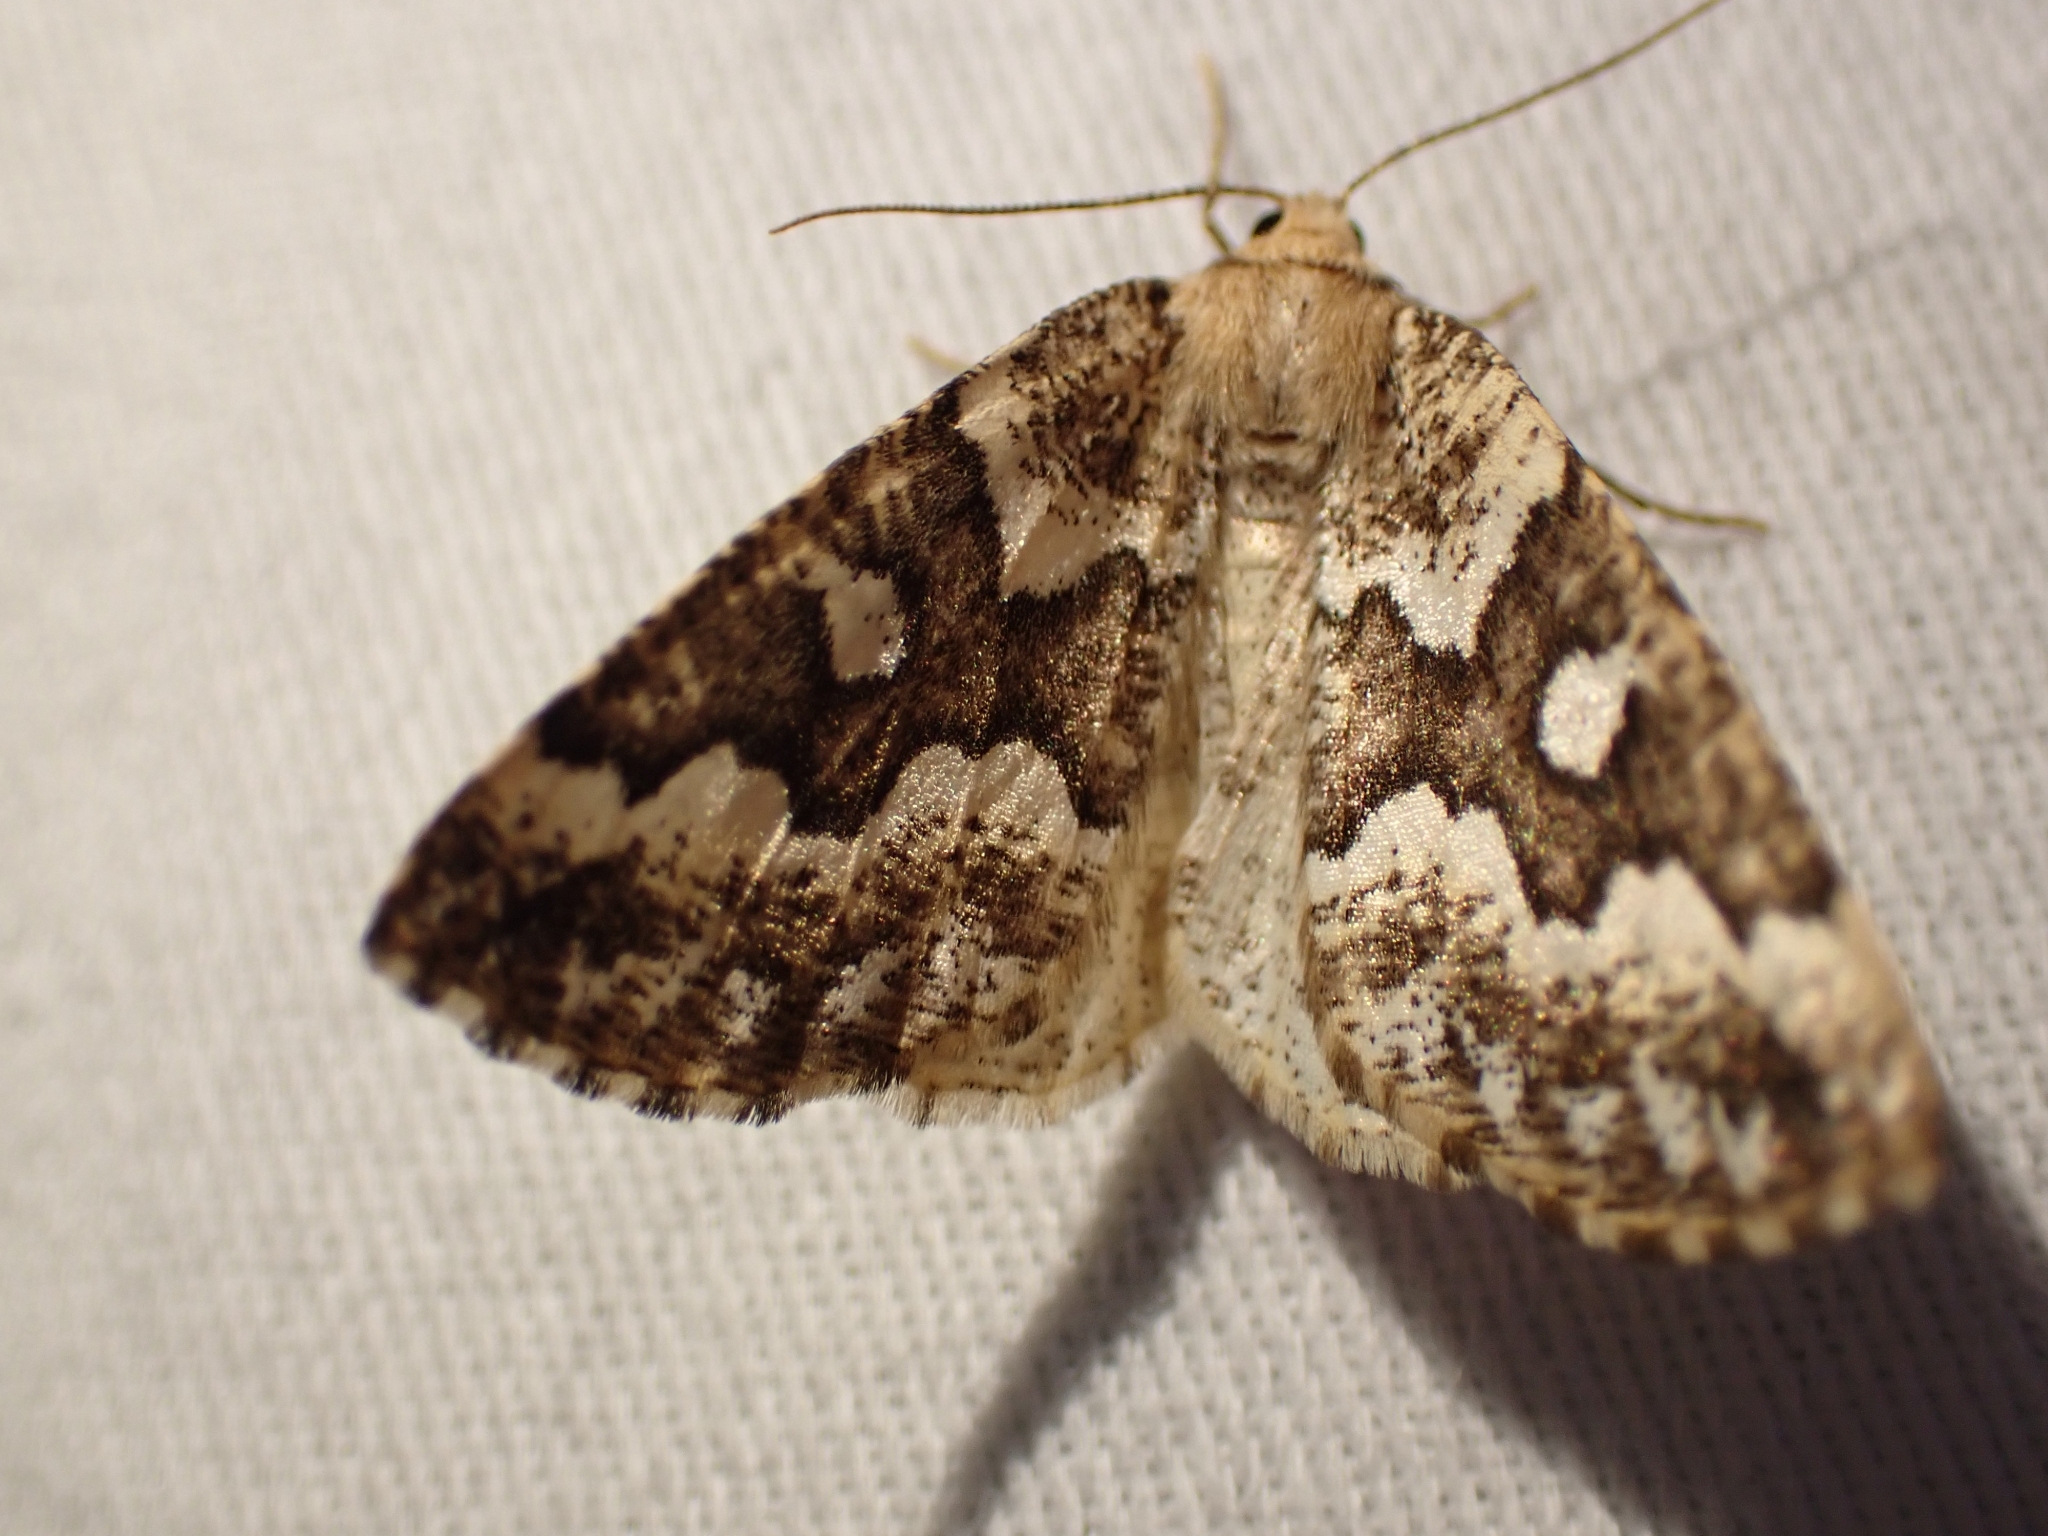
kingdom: Animalia
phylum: Arthropoda
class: Insecta
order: Lepidoptera
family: Geometridae
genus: Caripeta
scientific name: Caripeta divisata
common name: Gray spruce looper
